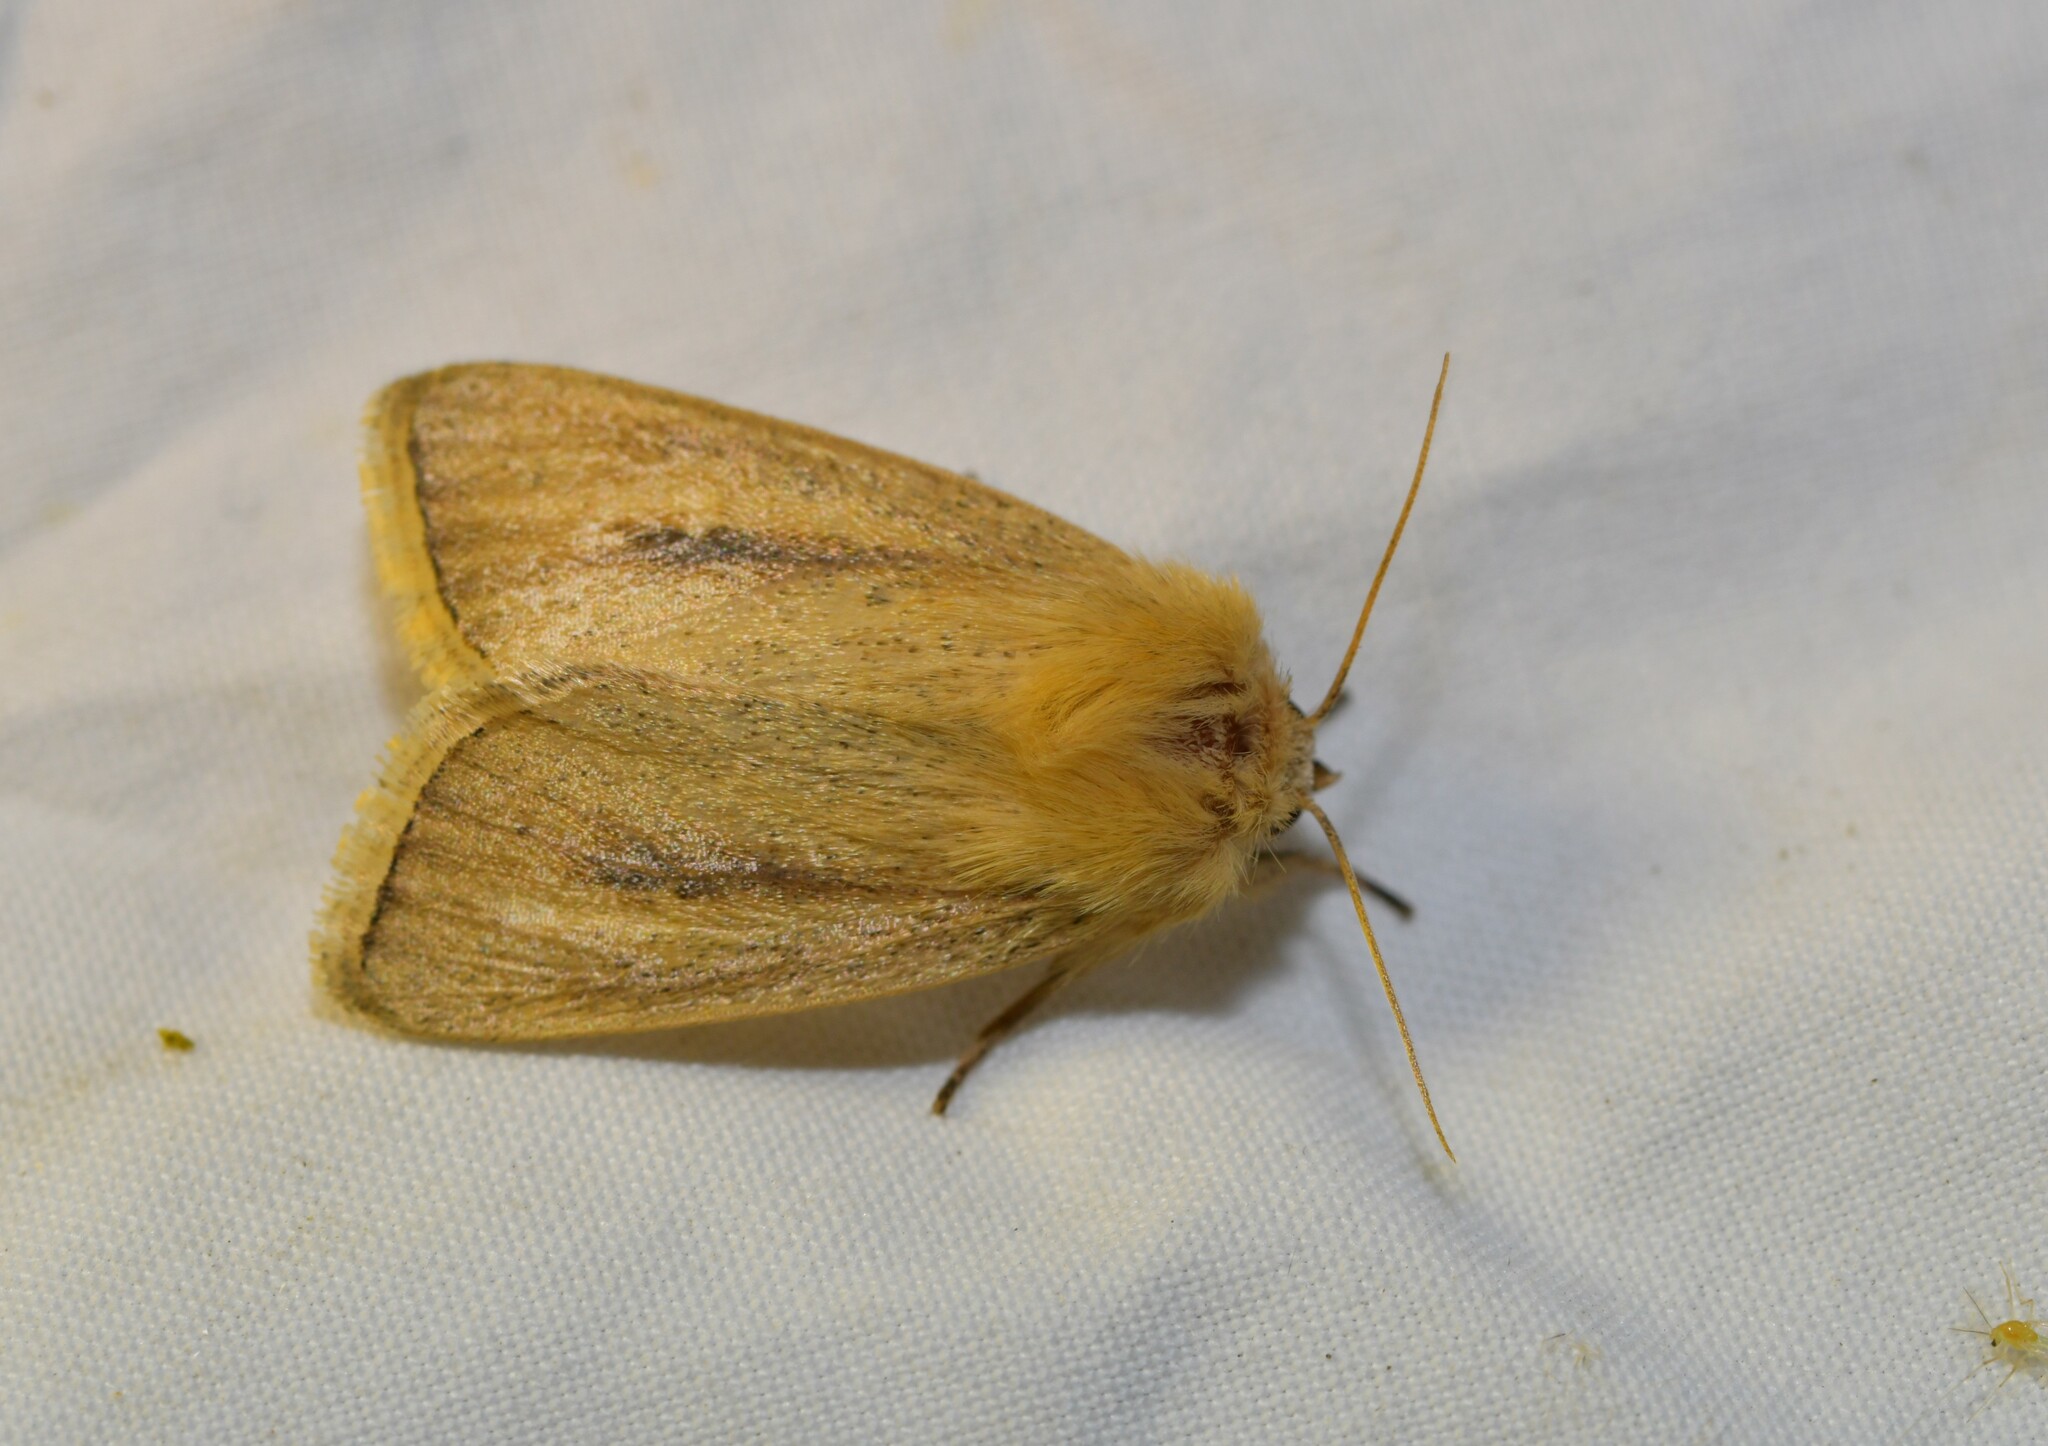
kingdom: Animalia
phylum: Arthropoda
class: Insecta
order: Lepidoptera
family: Noctuidae
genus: Sesamia
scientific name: Sesamia nonagrioides
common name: Pink stem borer
